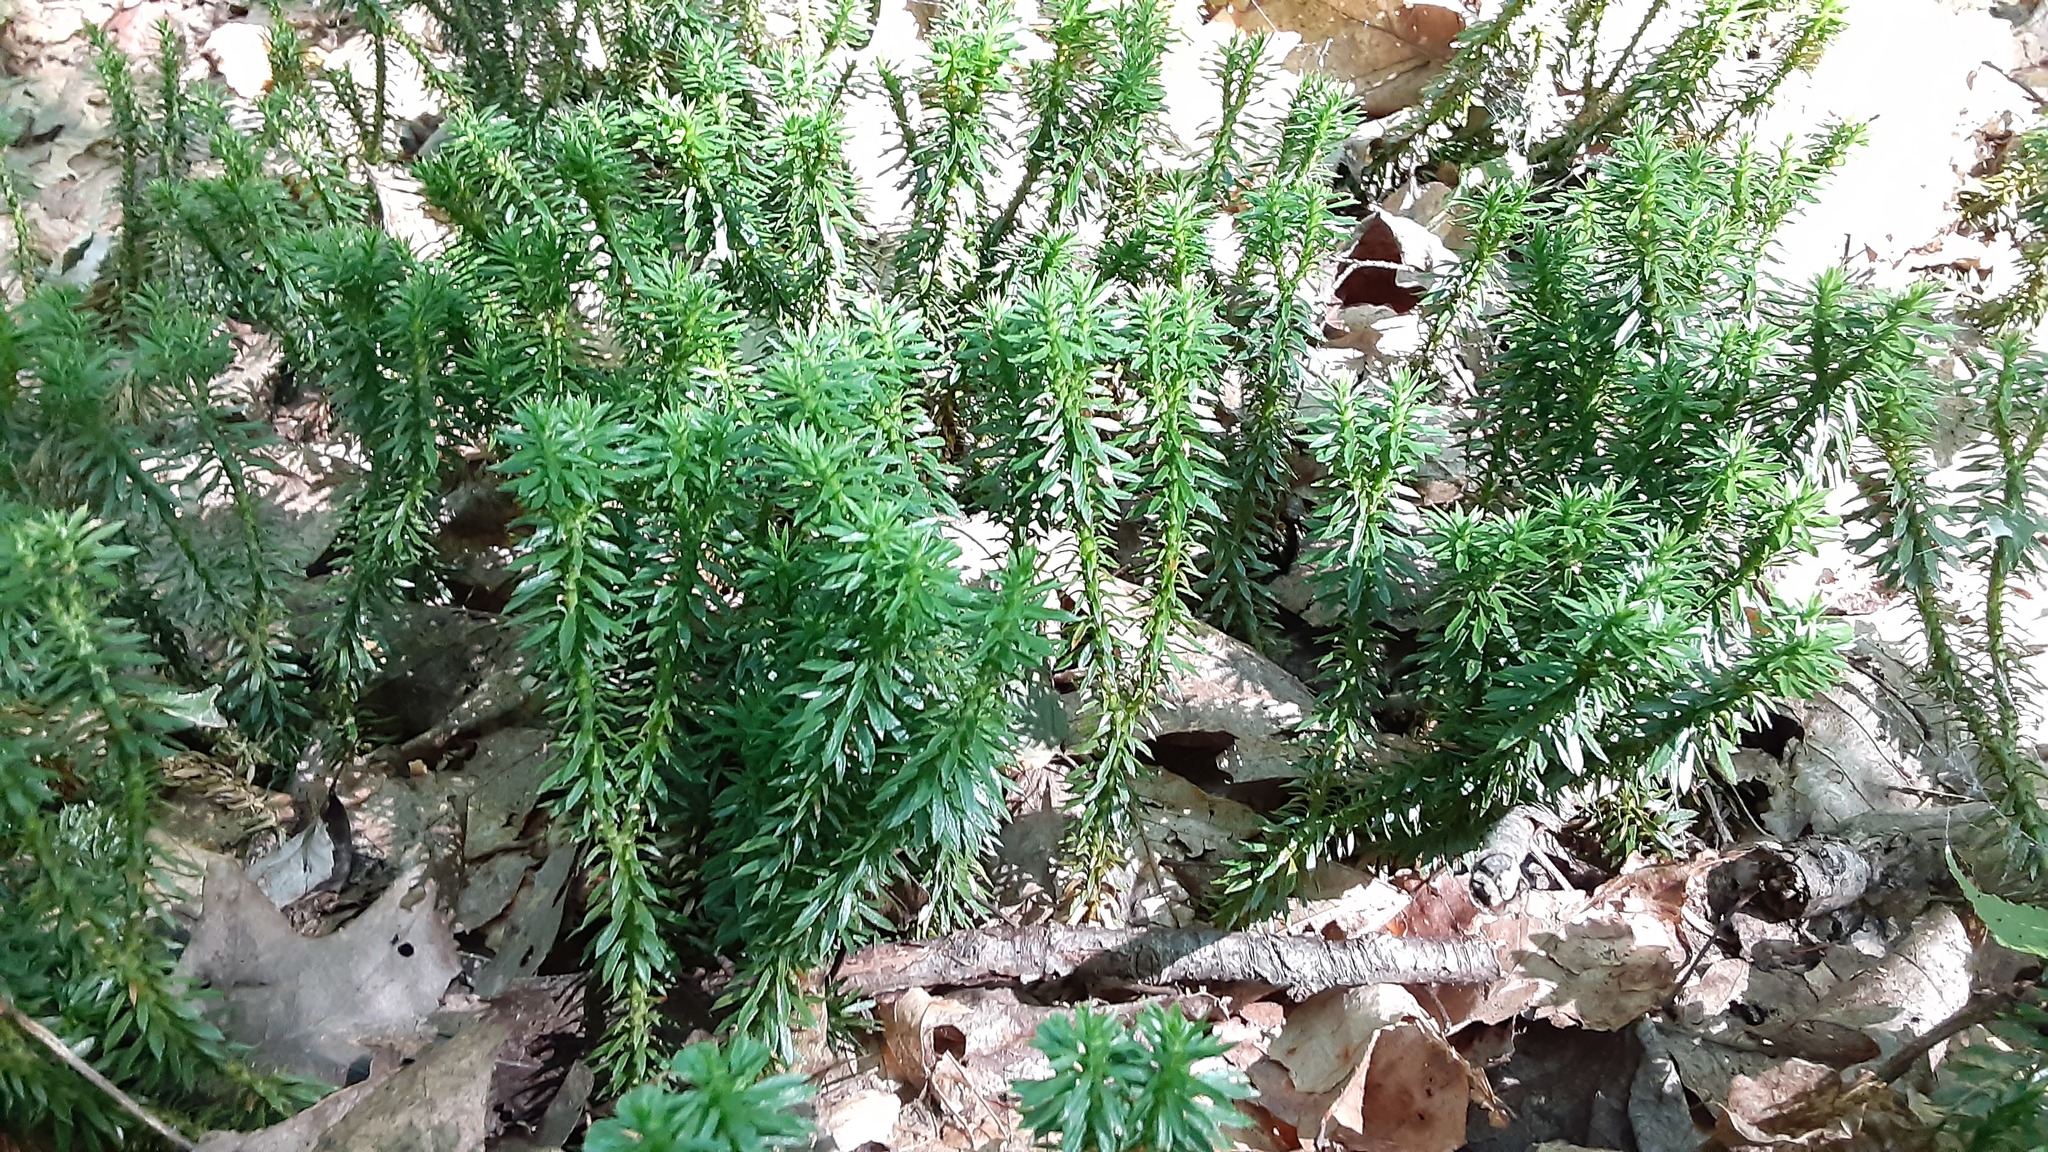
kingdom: Plantae
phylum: Tracheophyta
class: Lycopodiopsida
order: Lycopodiales
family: Lycopodiaceae
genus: Huperzia
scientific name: Huperzia lucidula
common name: Shining clubmoss
